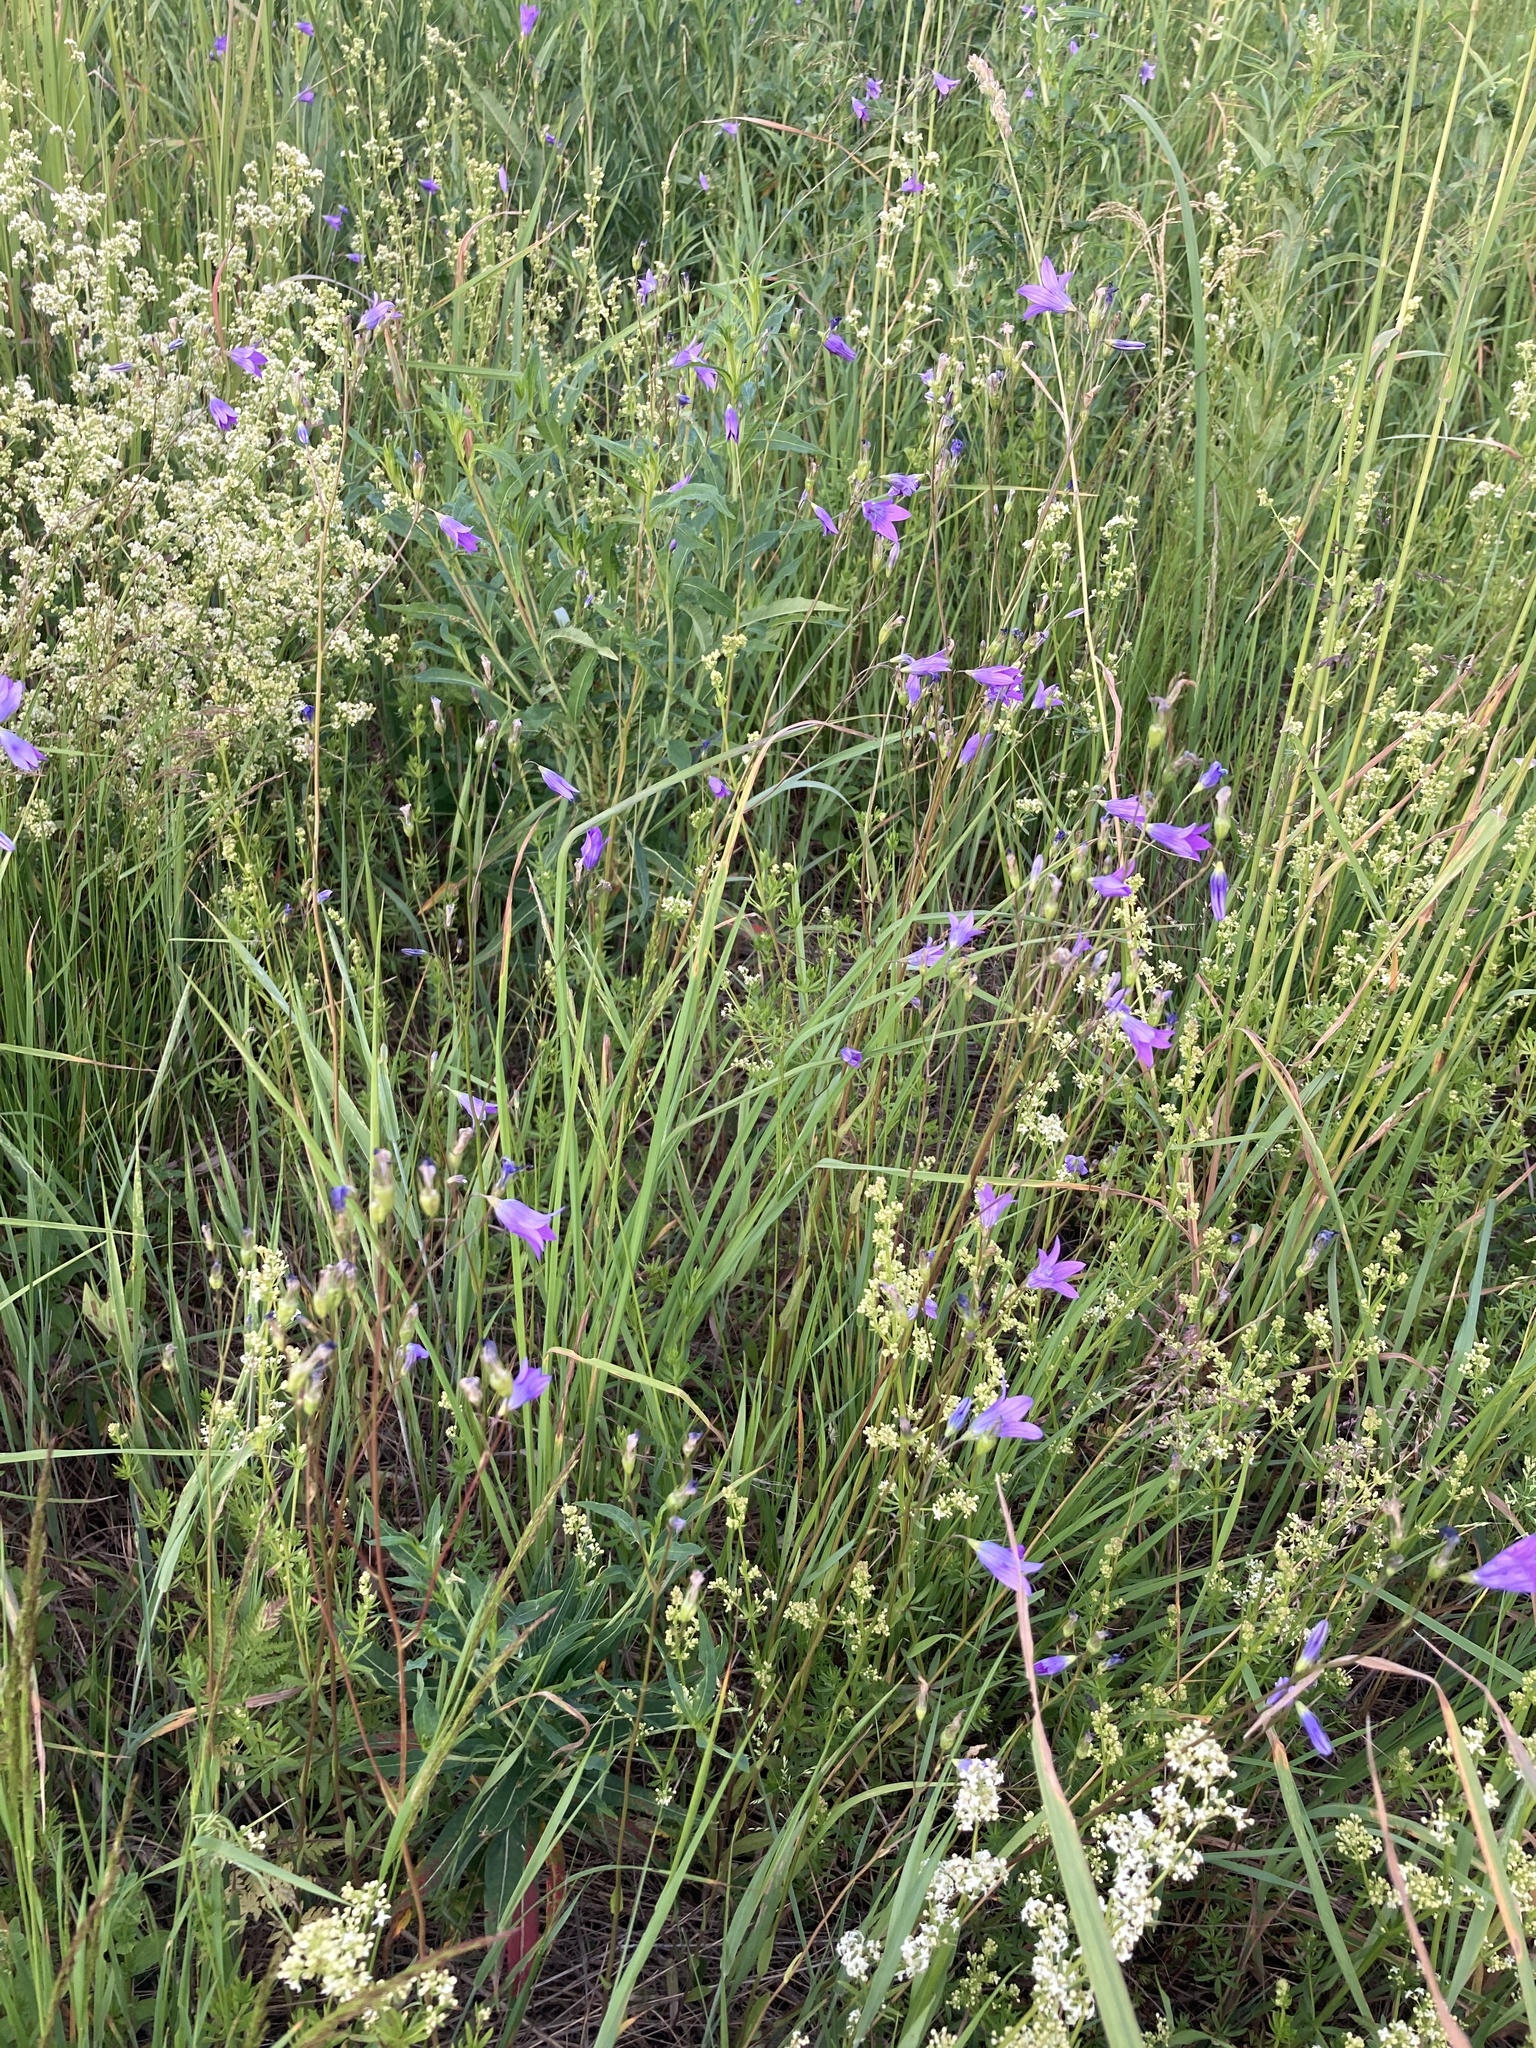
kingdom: Plantae
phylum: Tracheophyta
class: Magnoliopsida
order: Asterales
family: Campanulaceae
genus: Campanula
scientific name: Campanula patula
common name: Spreading bellflower
